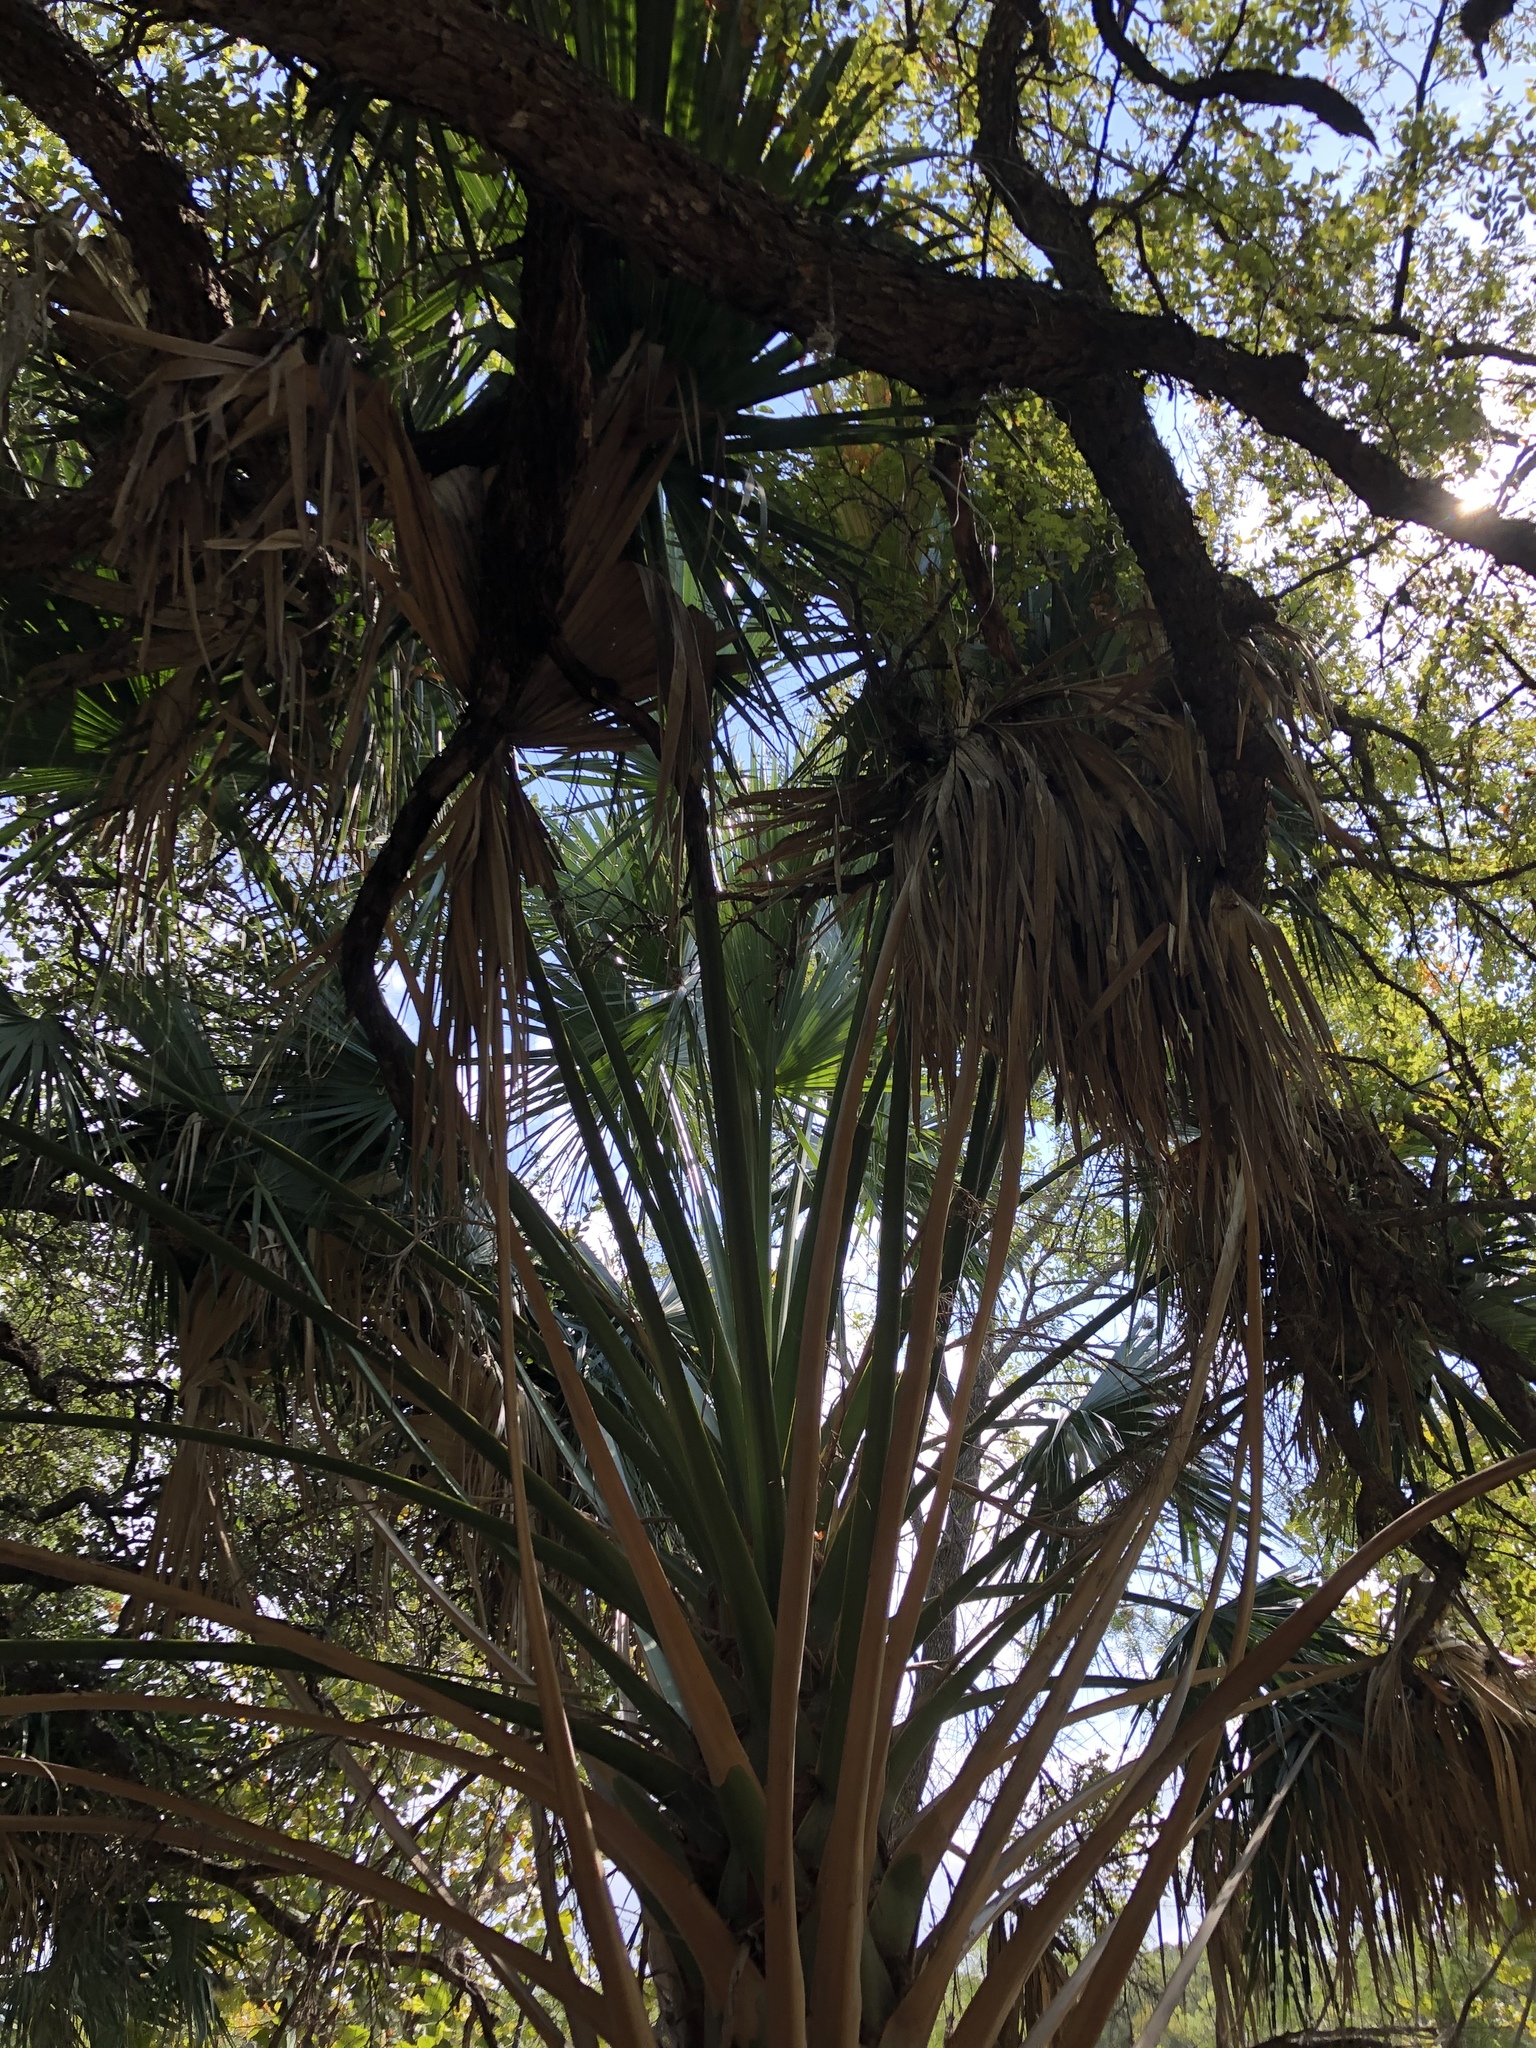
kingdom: Plantae
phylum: Tracheophyta
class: Liliopsida
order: Arecales
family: Arecaceae
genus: Sabal
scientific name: Sabal mexicana
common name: Texas palmetto
